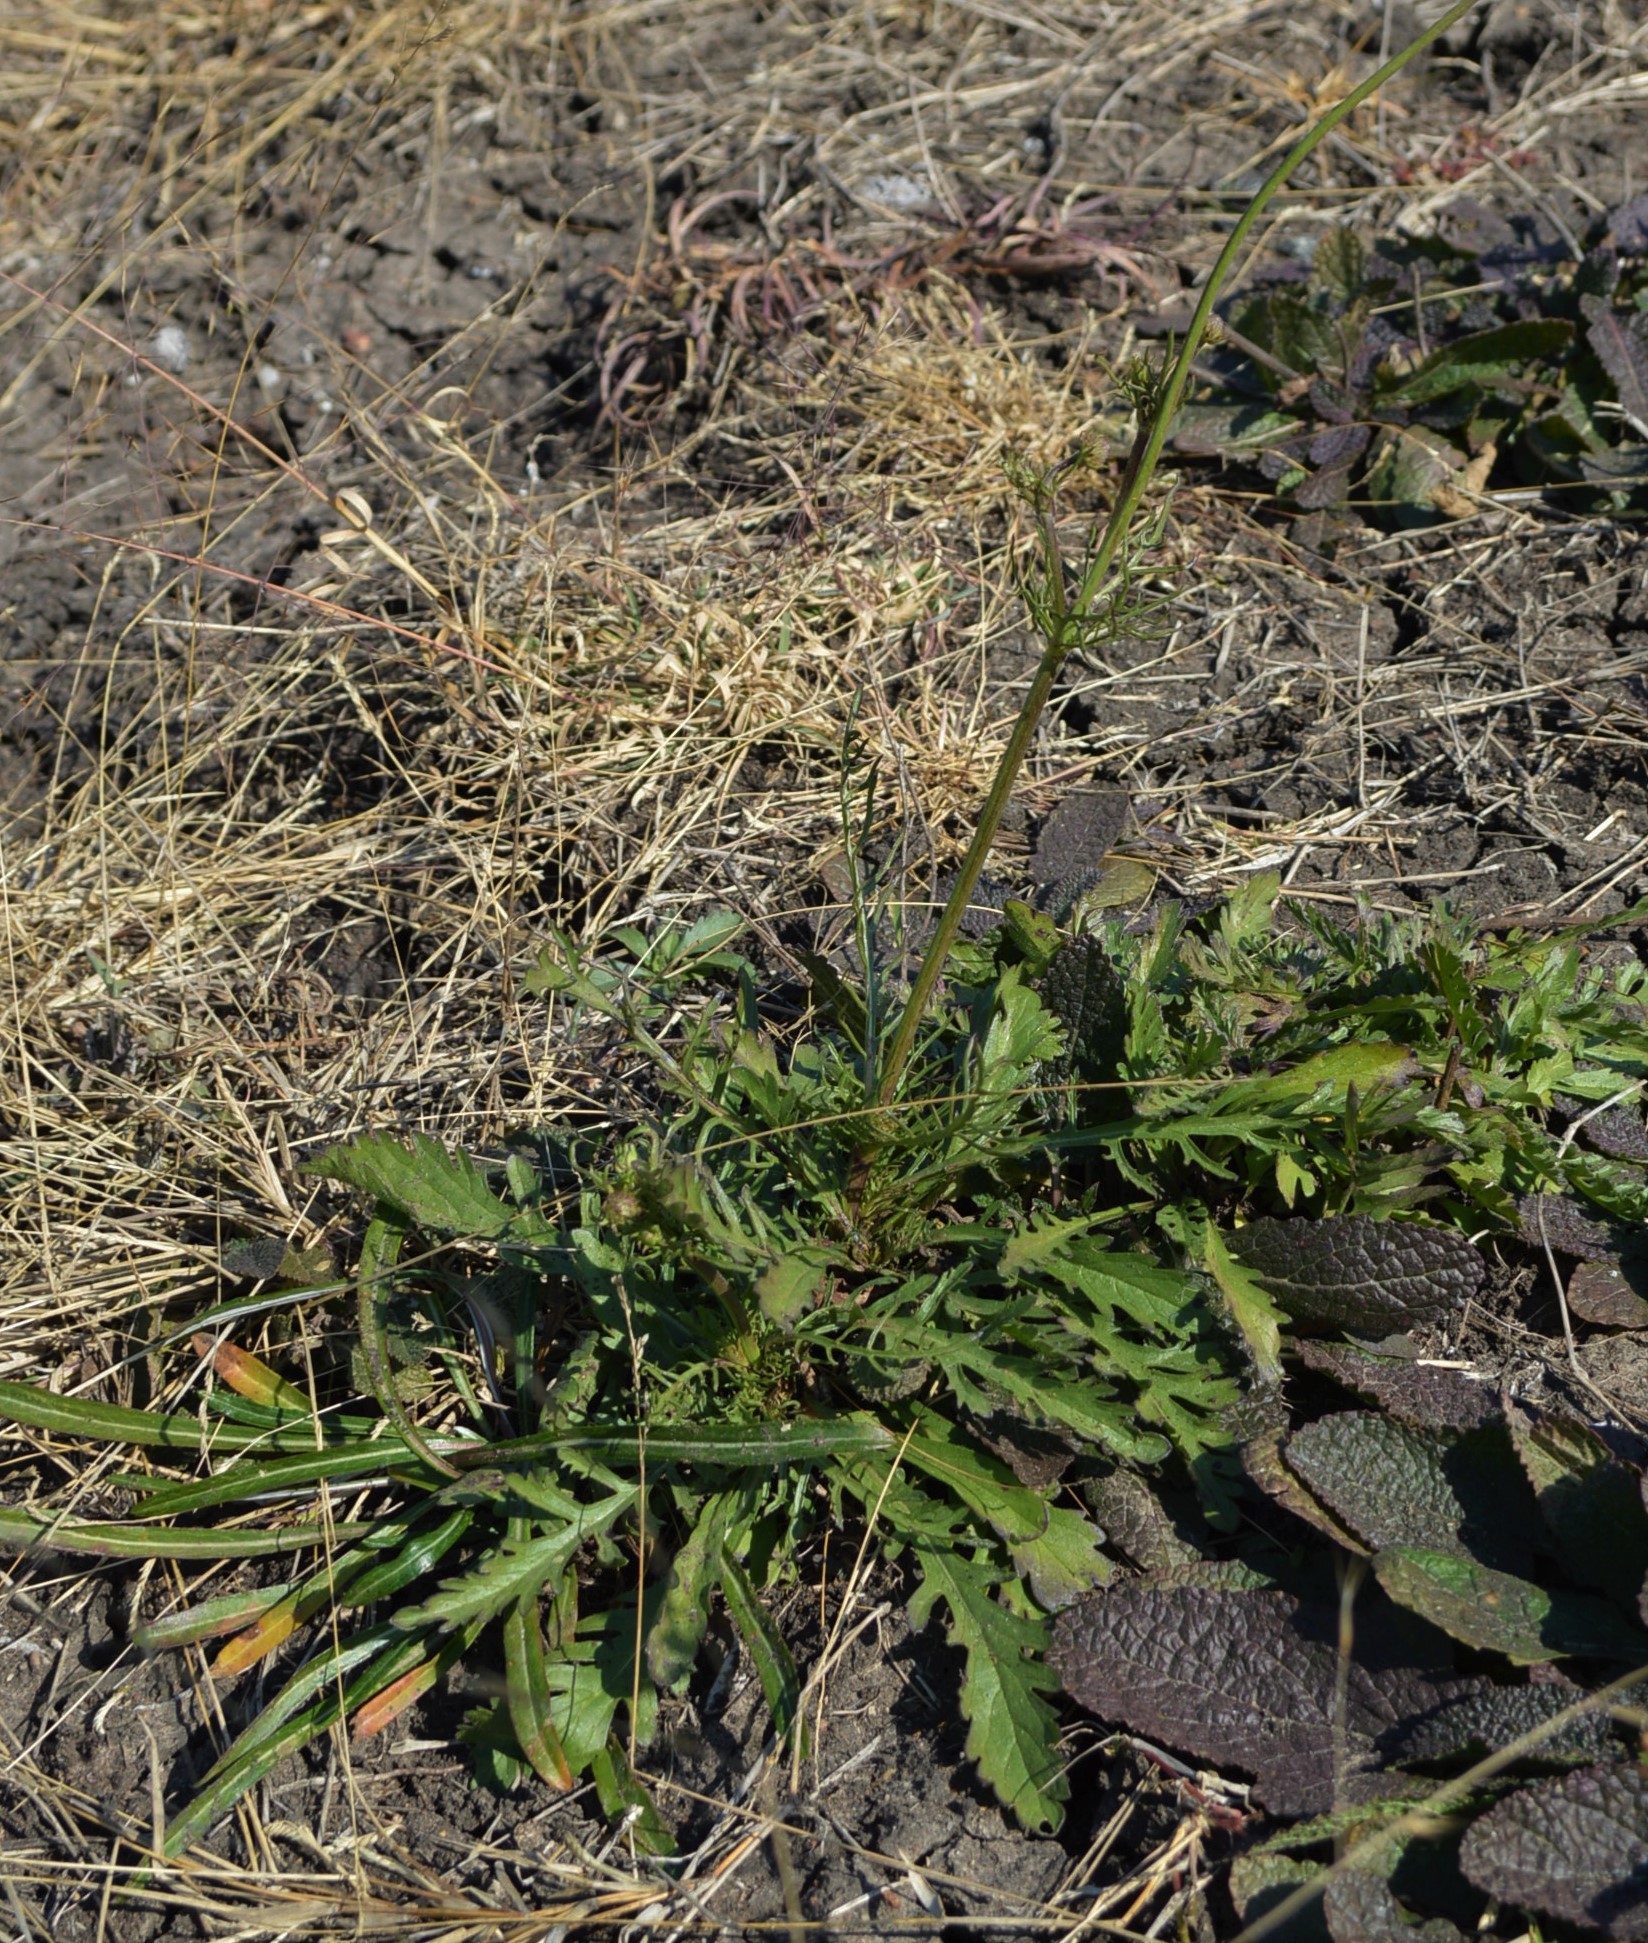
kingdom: Plantae
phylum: Tracheophyta
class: Magnoliopsida
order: Dipsacales
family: Caprifoliaceae
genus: Scabiosa
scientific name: Scabiosa columbaria
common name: Small scabious
